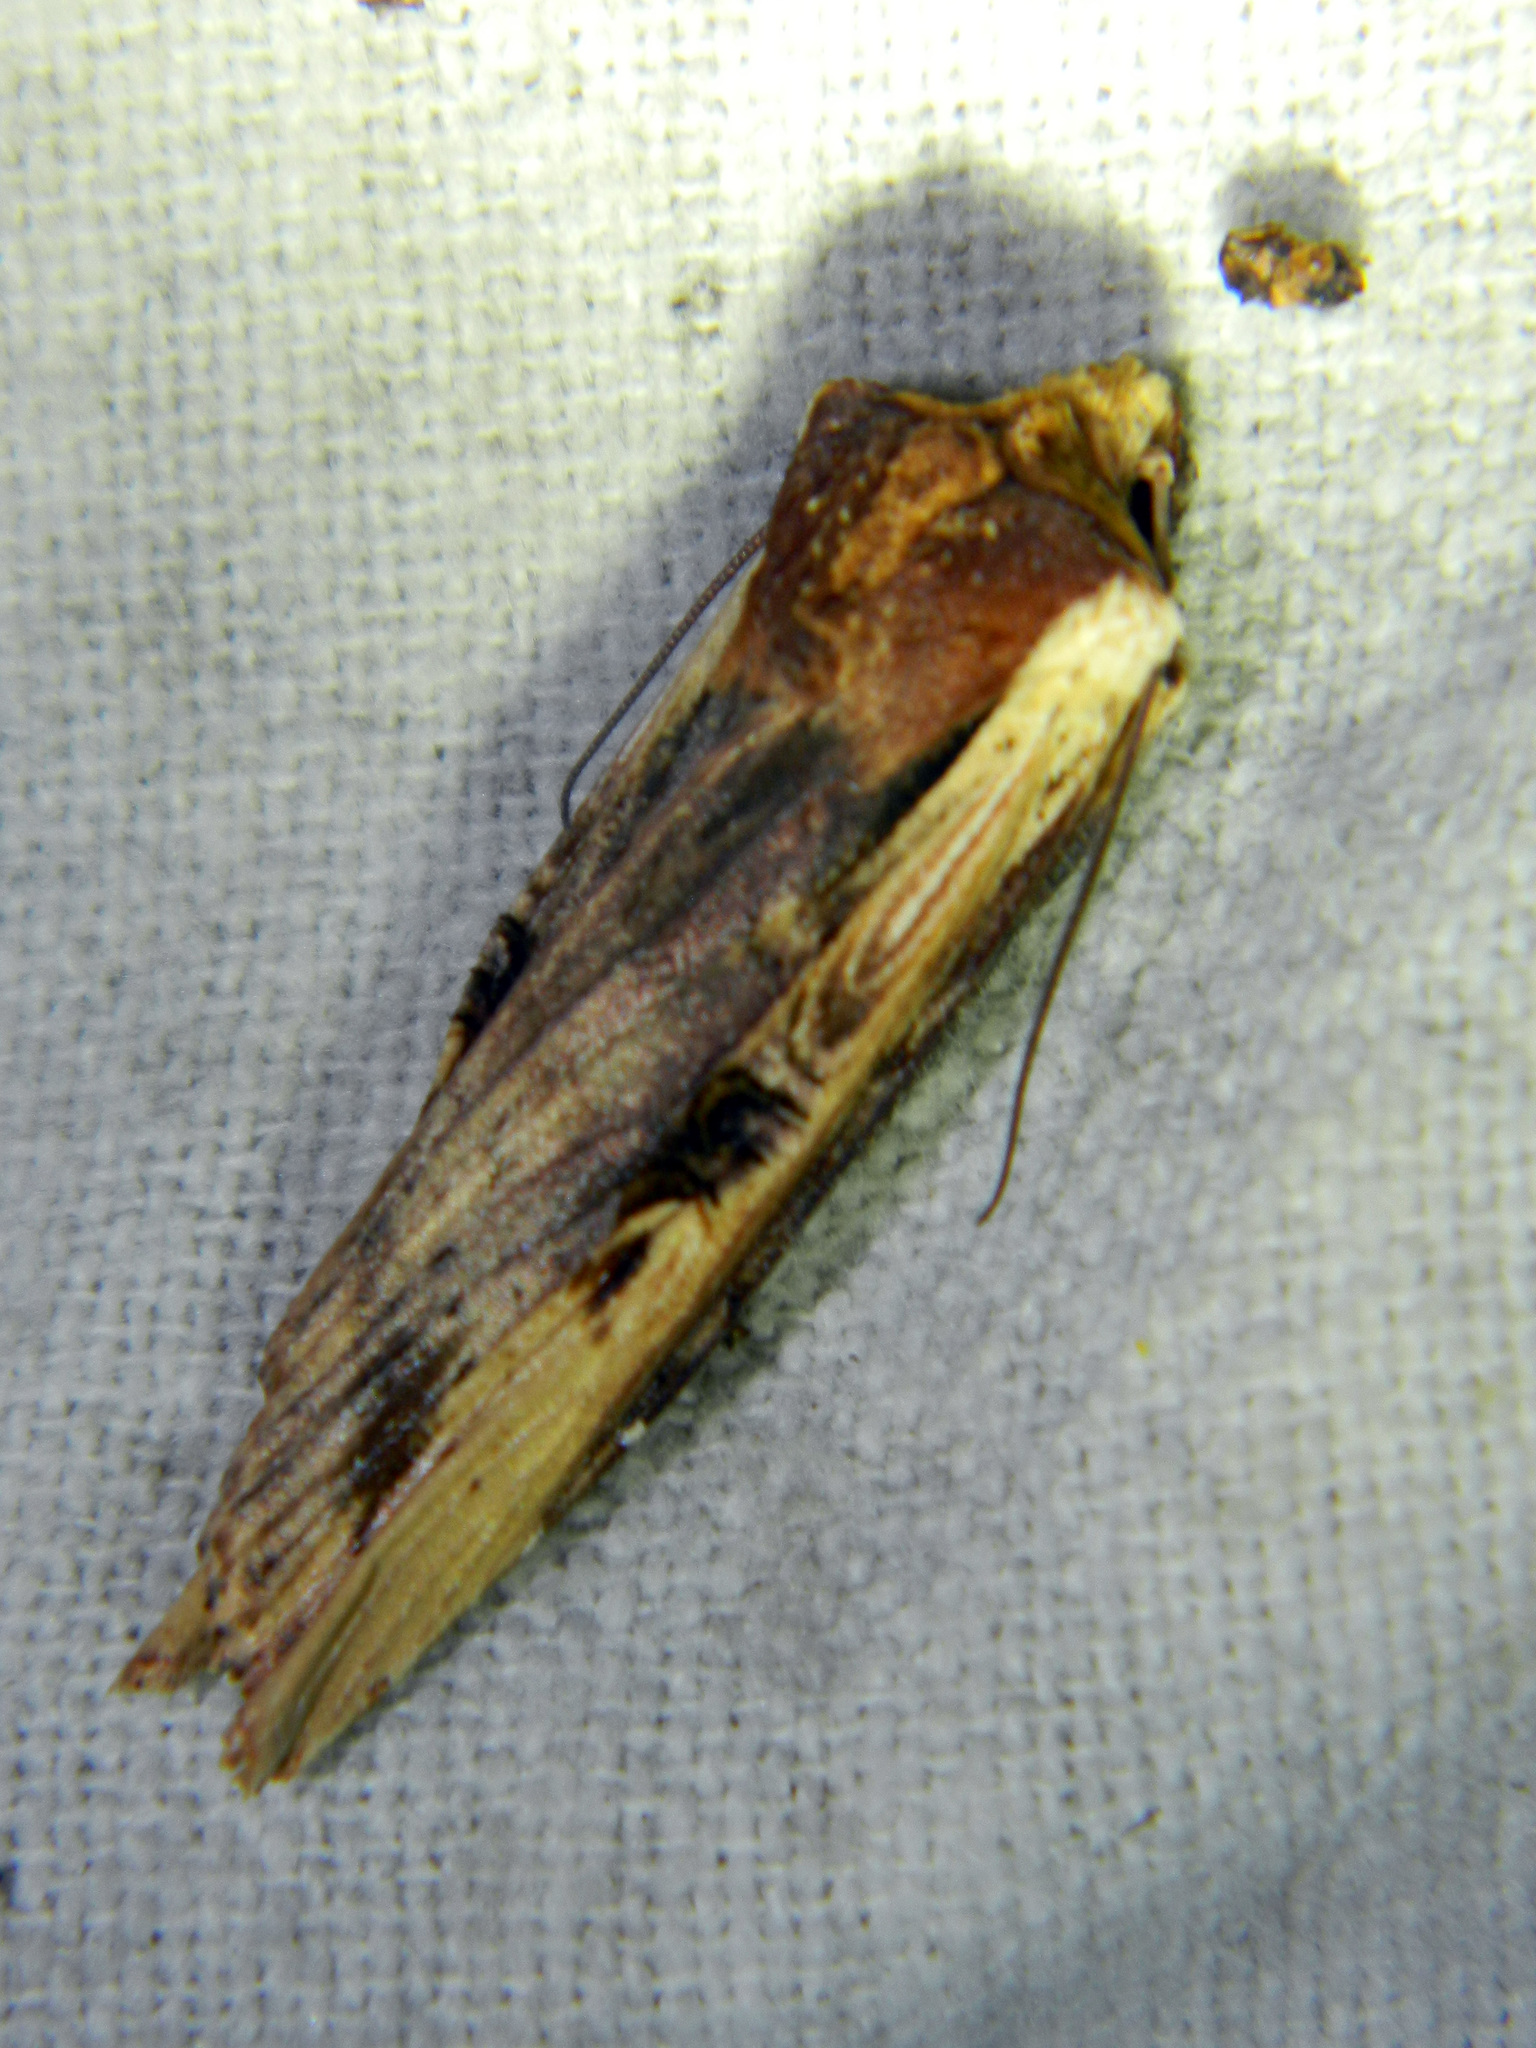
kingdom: Animalia
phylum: Arthropoda
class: Insecta
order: Lepidoptera
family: Noctuidae
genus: Xylena
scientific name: Xylena curvimacula
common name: Dot-and-dash swordgrass moth
